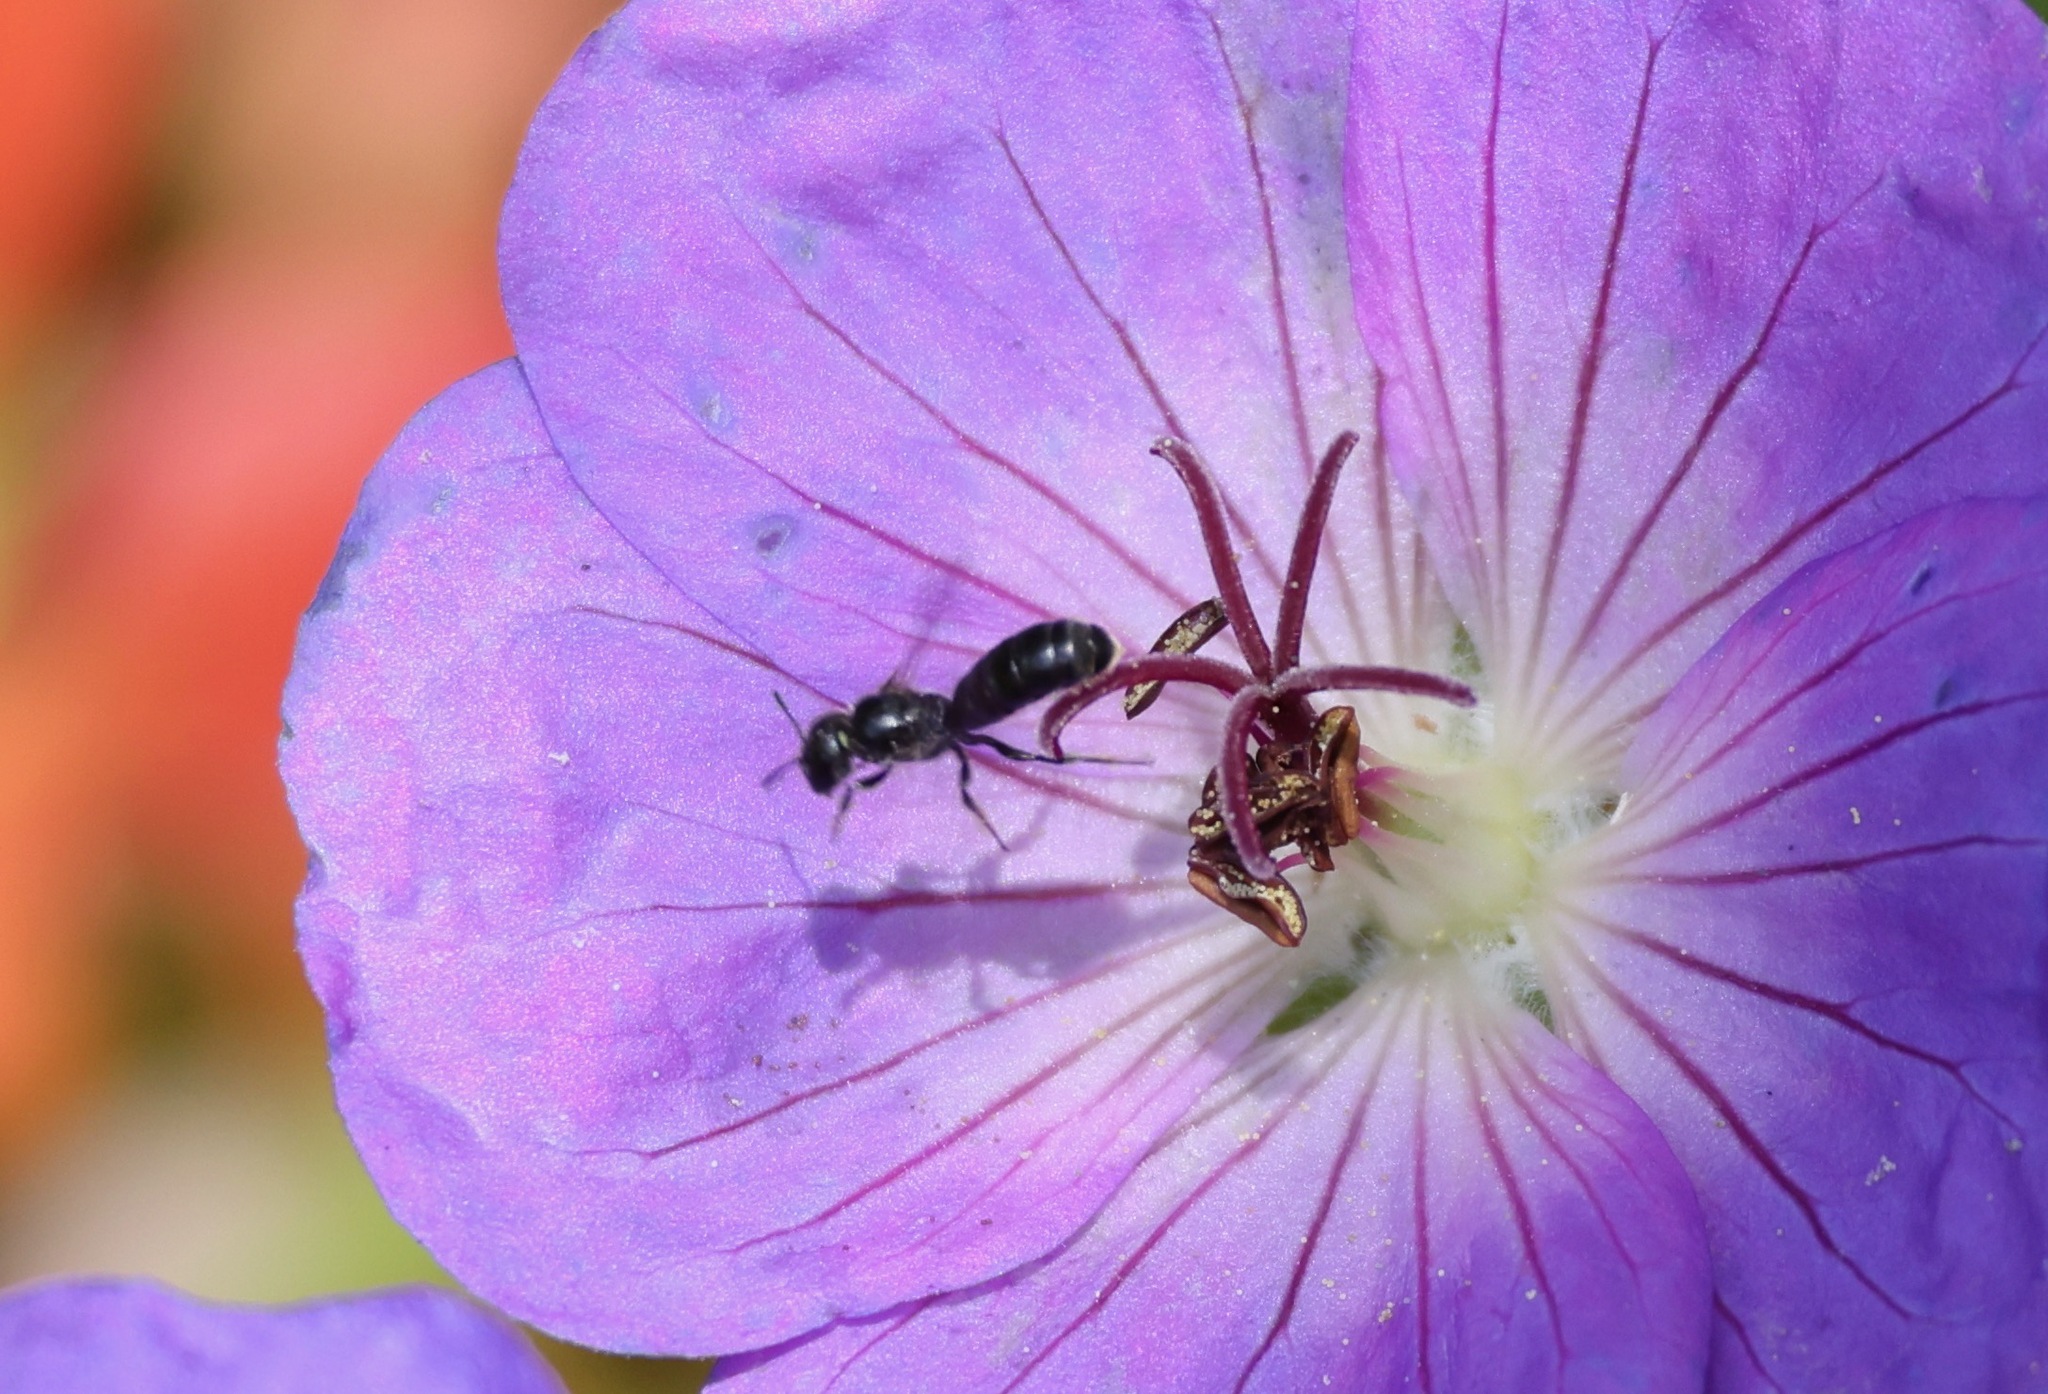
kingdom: Animalia
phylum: Arthropoda
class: Insecta
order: Hymenoptera
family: Megachilidae
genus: Chelostoma
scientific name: Chelostoma campanularum
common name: Small scissor bee
